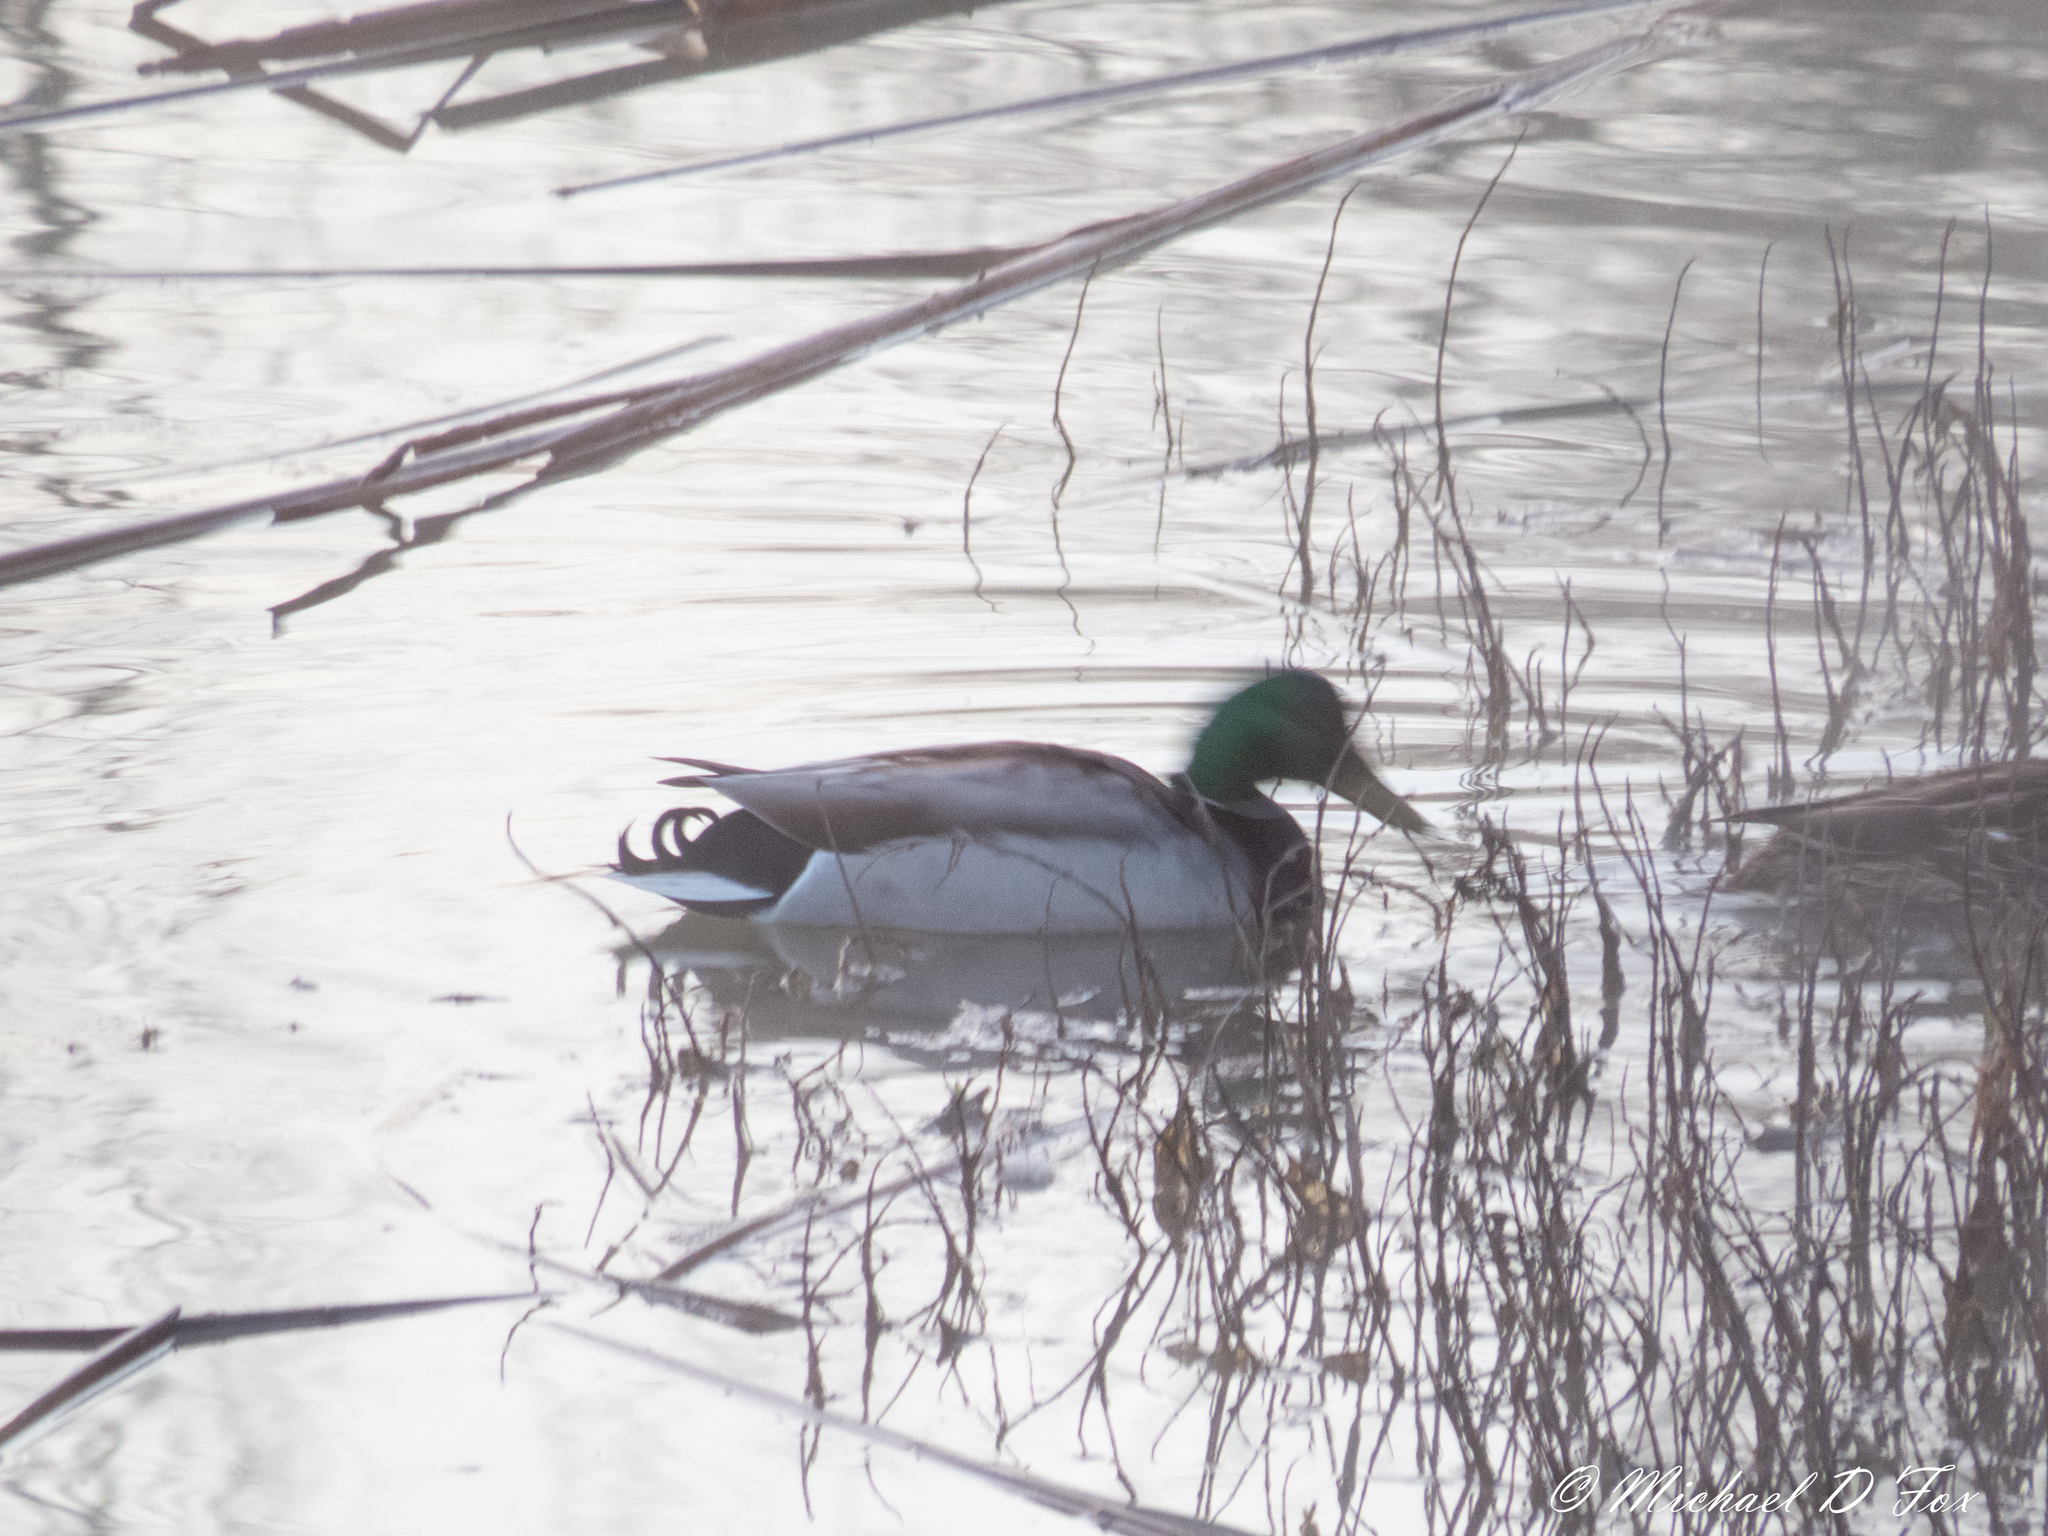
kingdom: Animalia
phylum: Chordata
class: Aves
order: Anseriformes
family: Anatidae
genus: Anas
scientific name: Anas platyrhynchos
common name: Mallard
